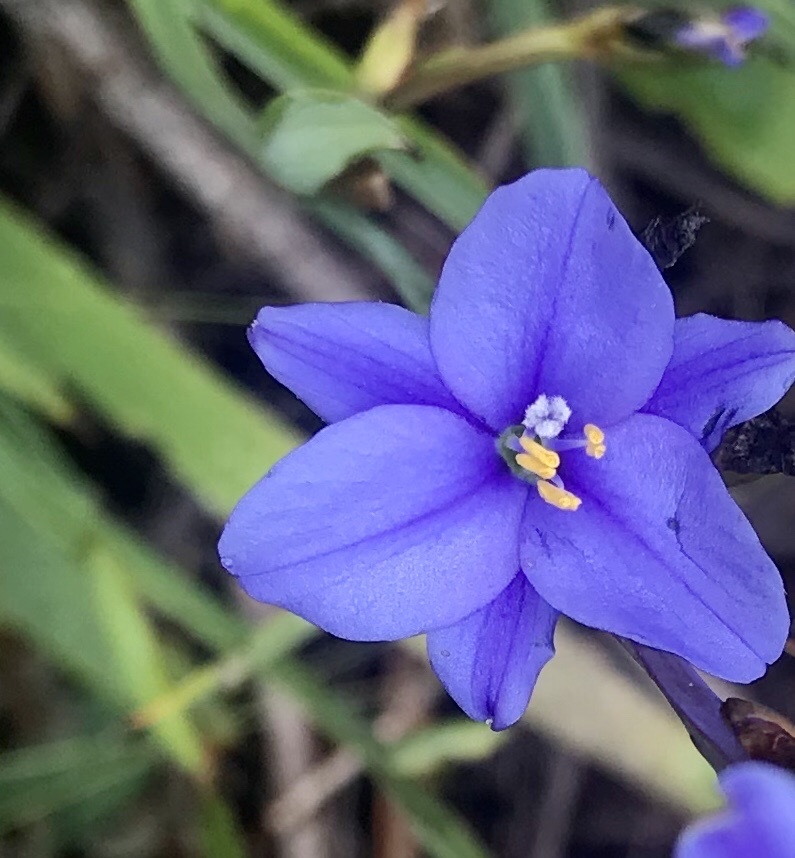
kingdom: Plantae
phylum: Tracheophyta
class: Liliopsida
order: Asparagales
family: Iridaceae
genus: Aristea
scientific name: Aristea ensifolia
